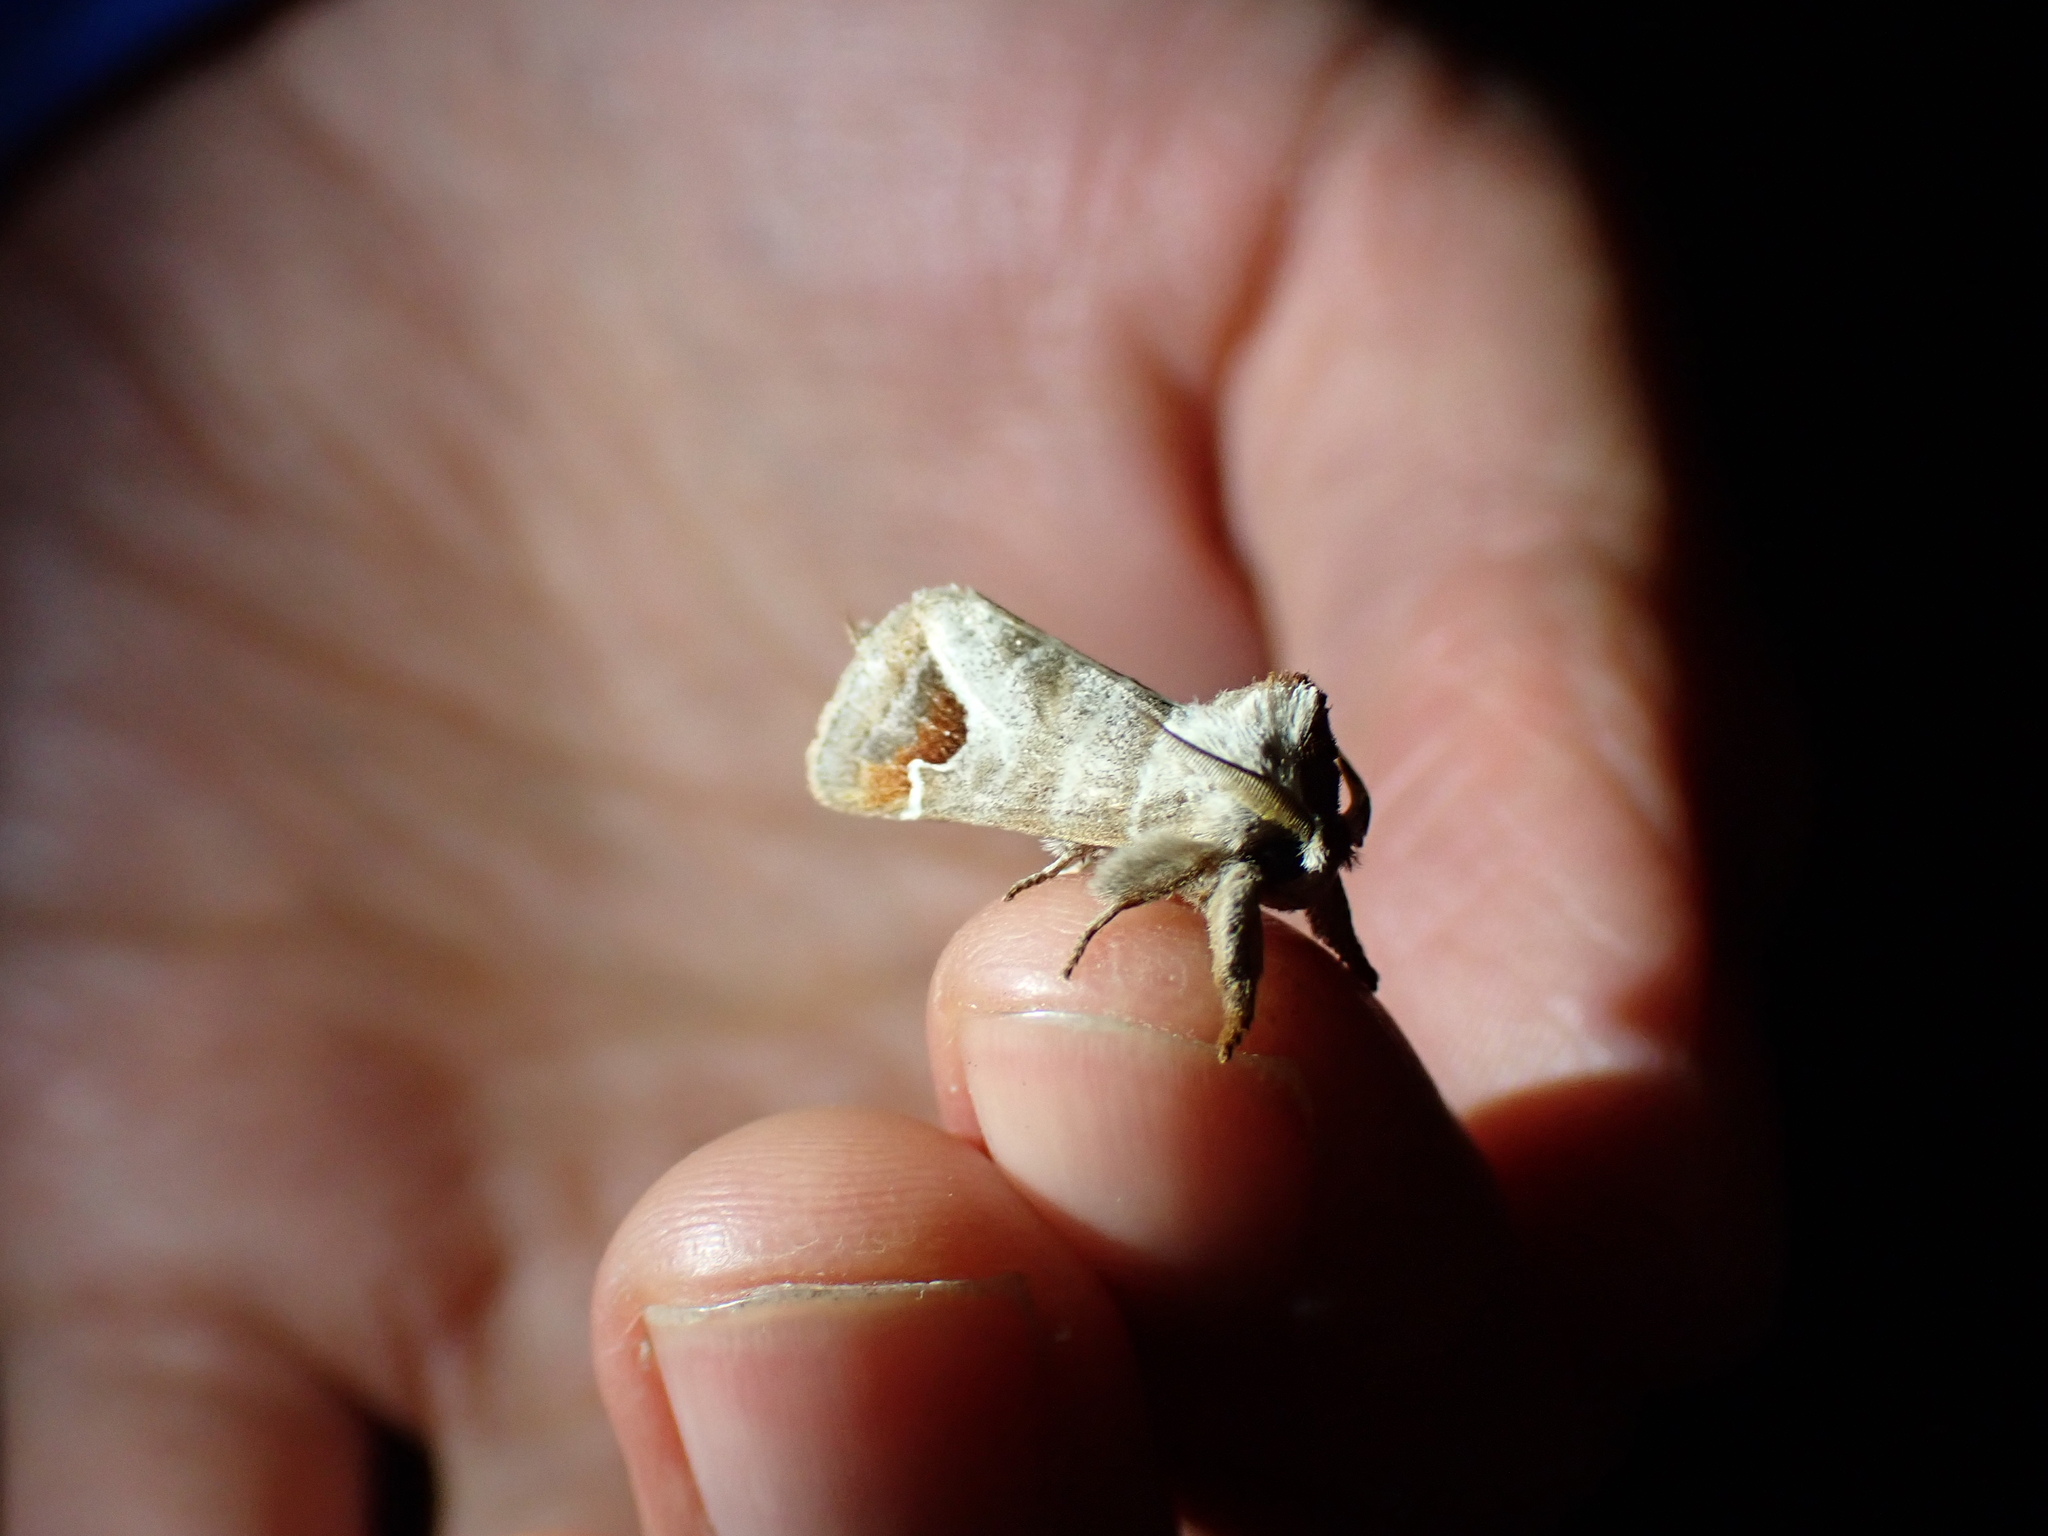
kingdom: Animalia
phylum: Arthropoda
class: Insecta
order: Lepidoptera
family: Notodontidae
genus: Clostera
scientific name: Clostera albosigma
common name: Sigmoid prominent
